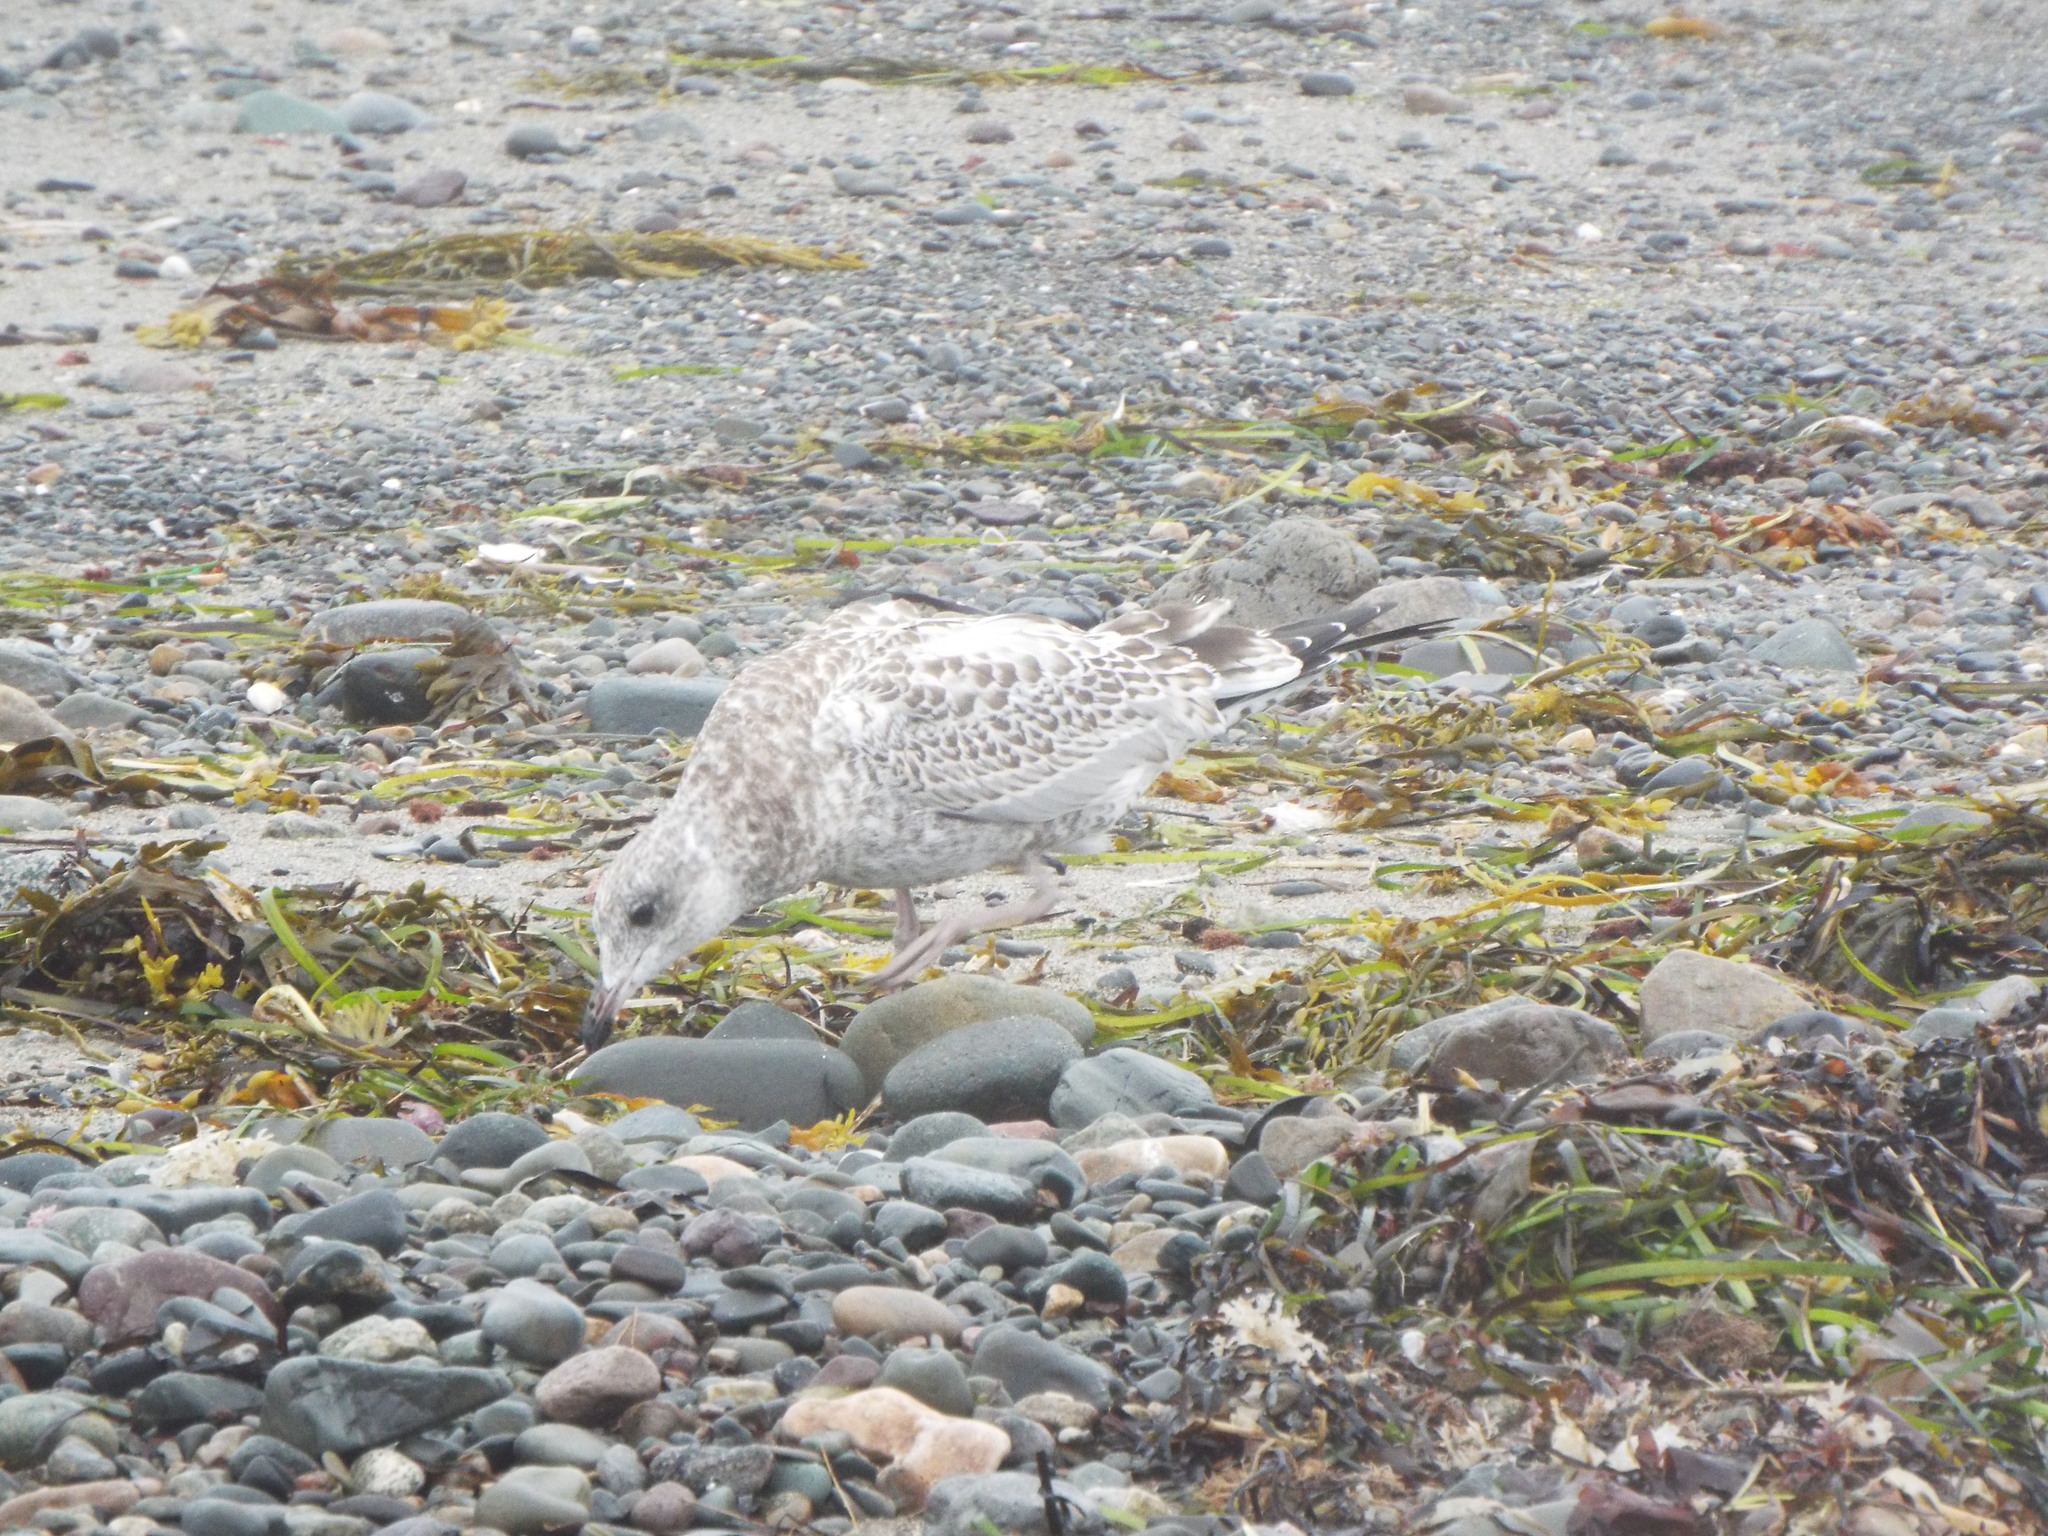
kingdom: Animalia
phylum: Chordata
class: Aves
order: Charadriiformes
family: Laridae
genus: Larus
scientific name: Larus delawarensis
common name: Ring-billed gull
